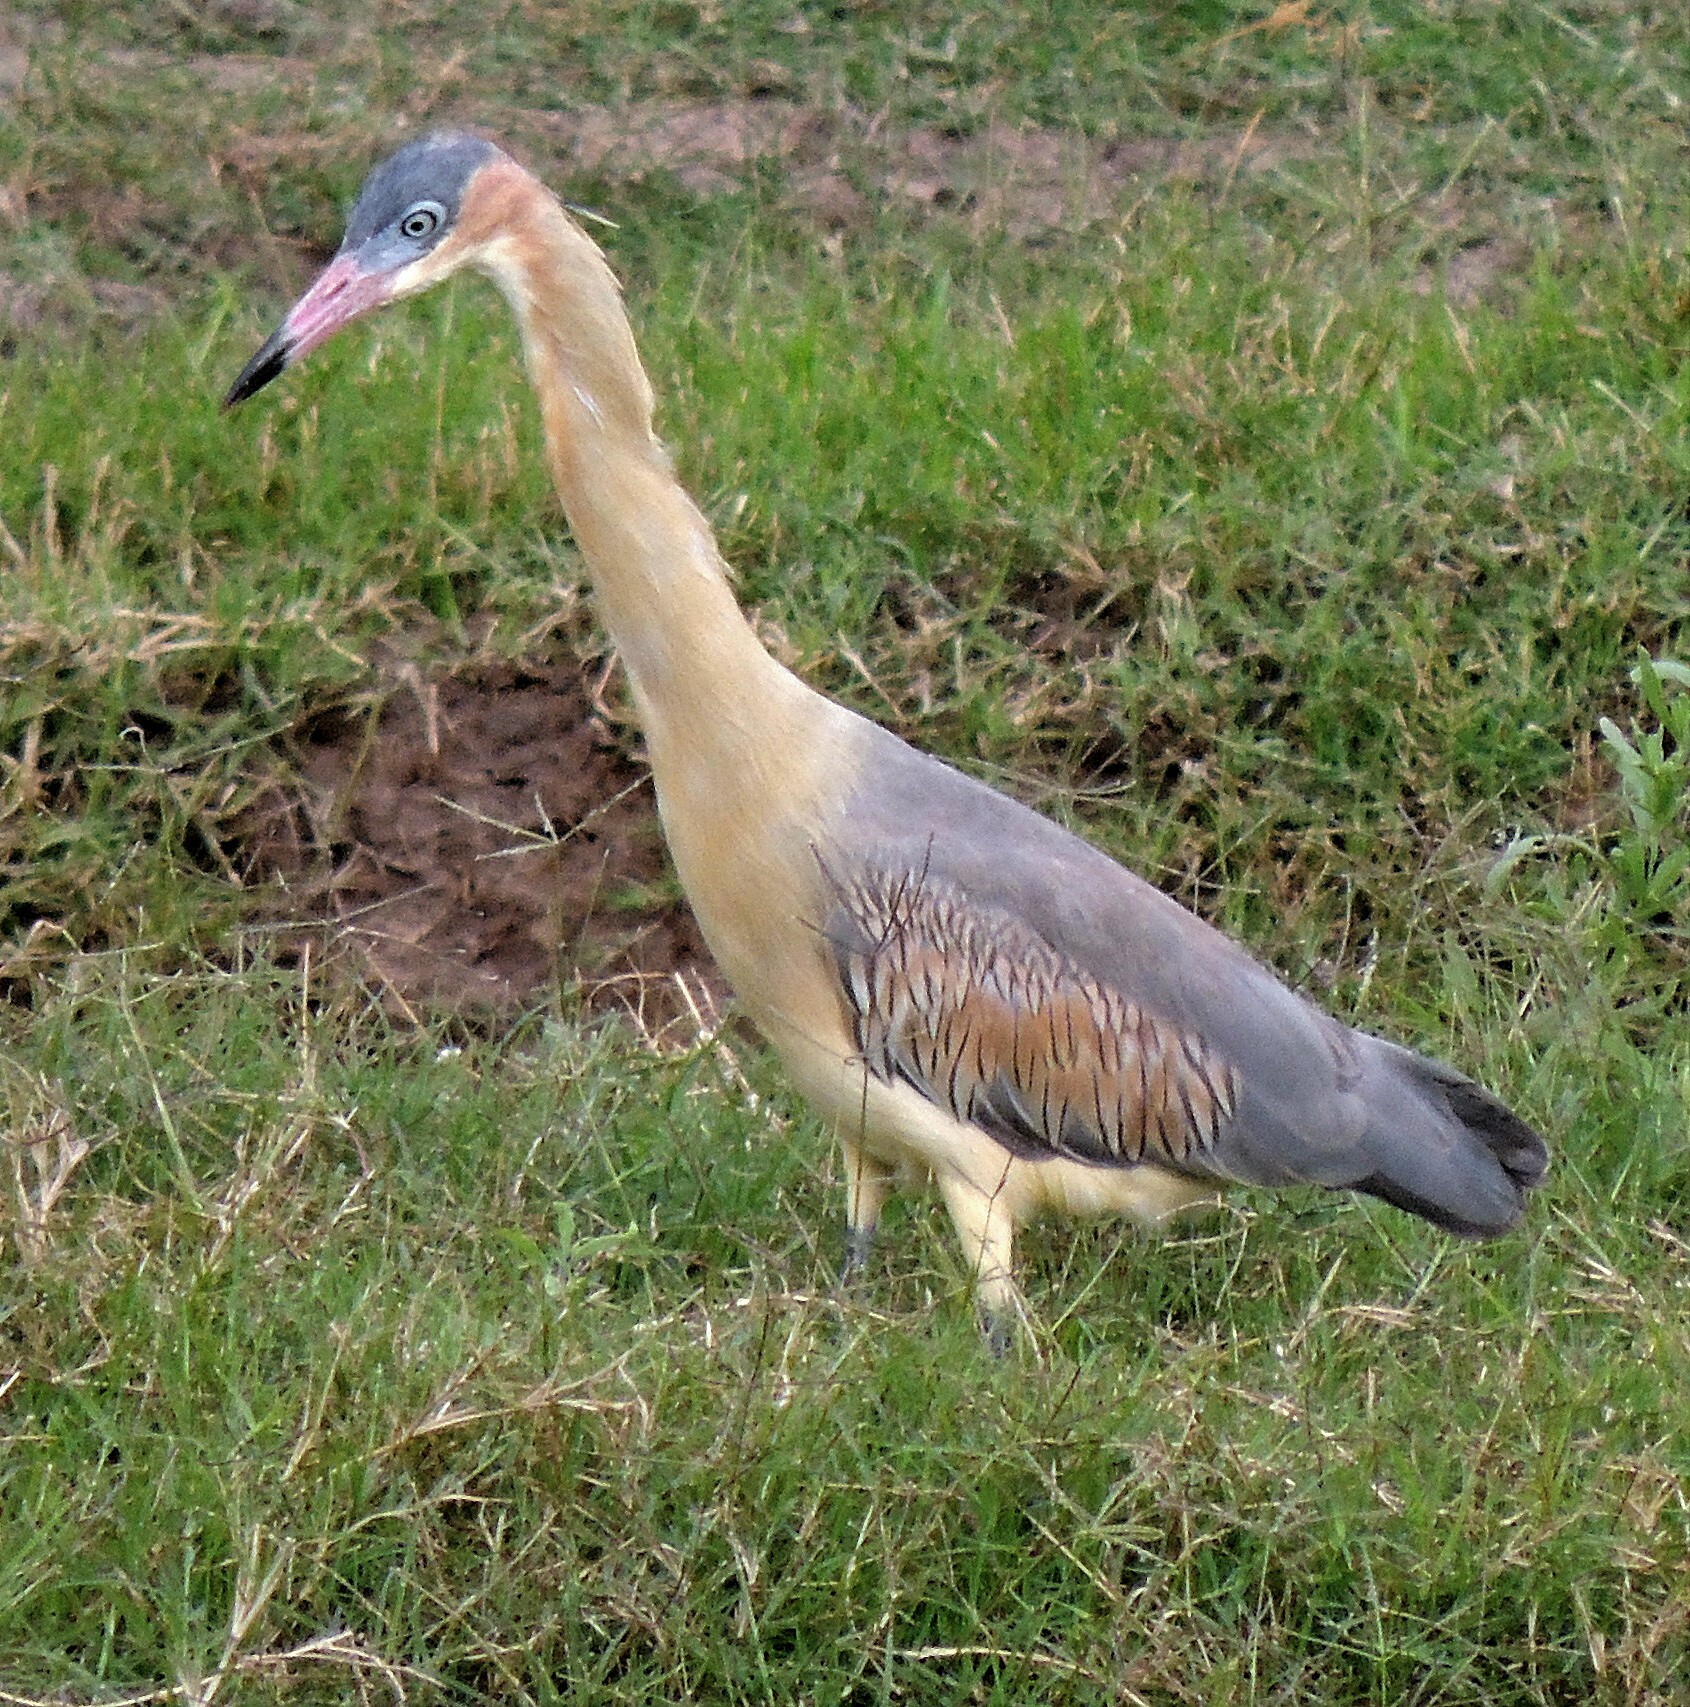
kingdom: Animalia
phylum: Chordata
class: Aves
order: Pelecaniformes
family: Ardeidae
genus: Syrigma
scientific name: Syrigma sibilatrix
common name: Whistling heron
